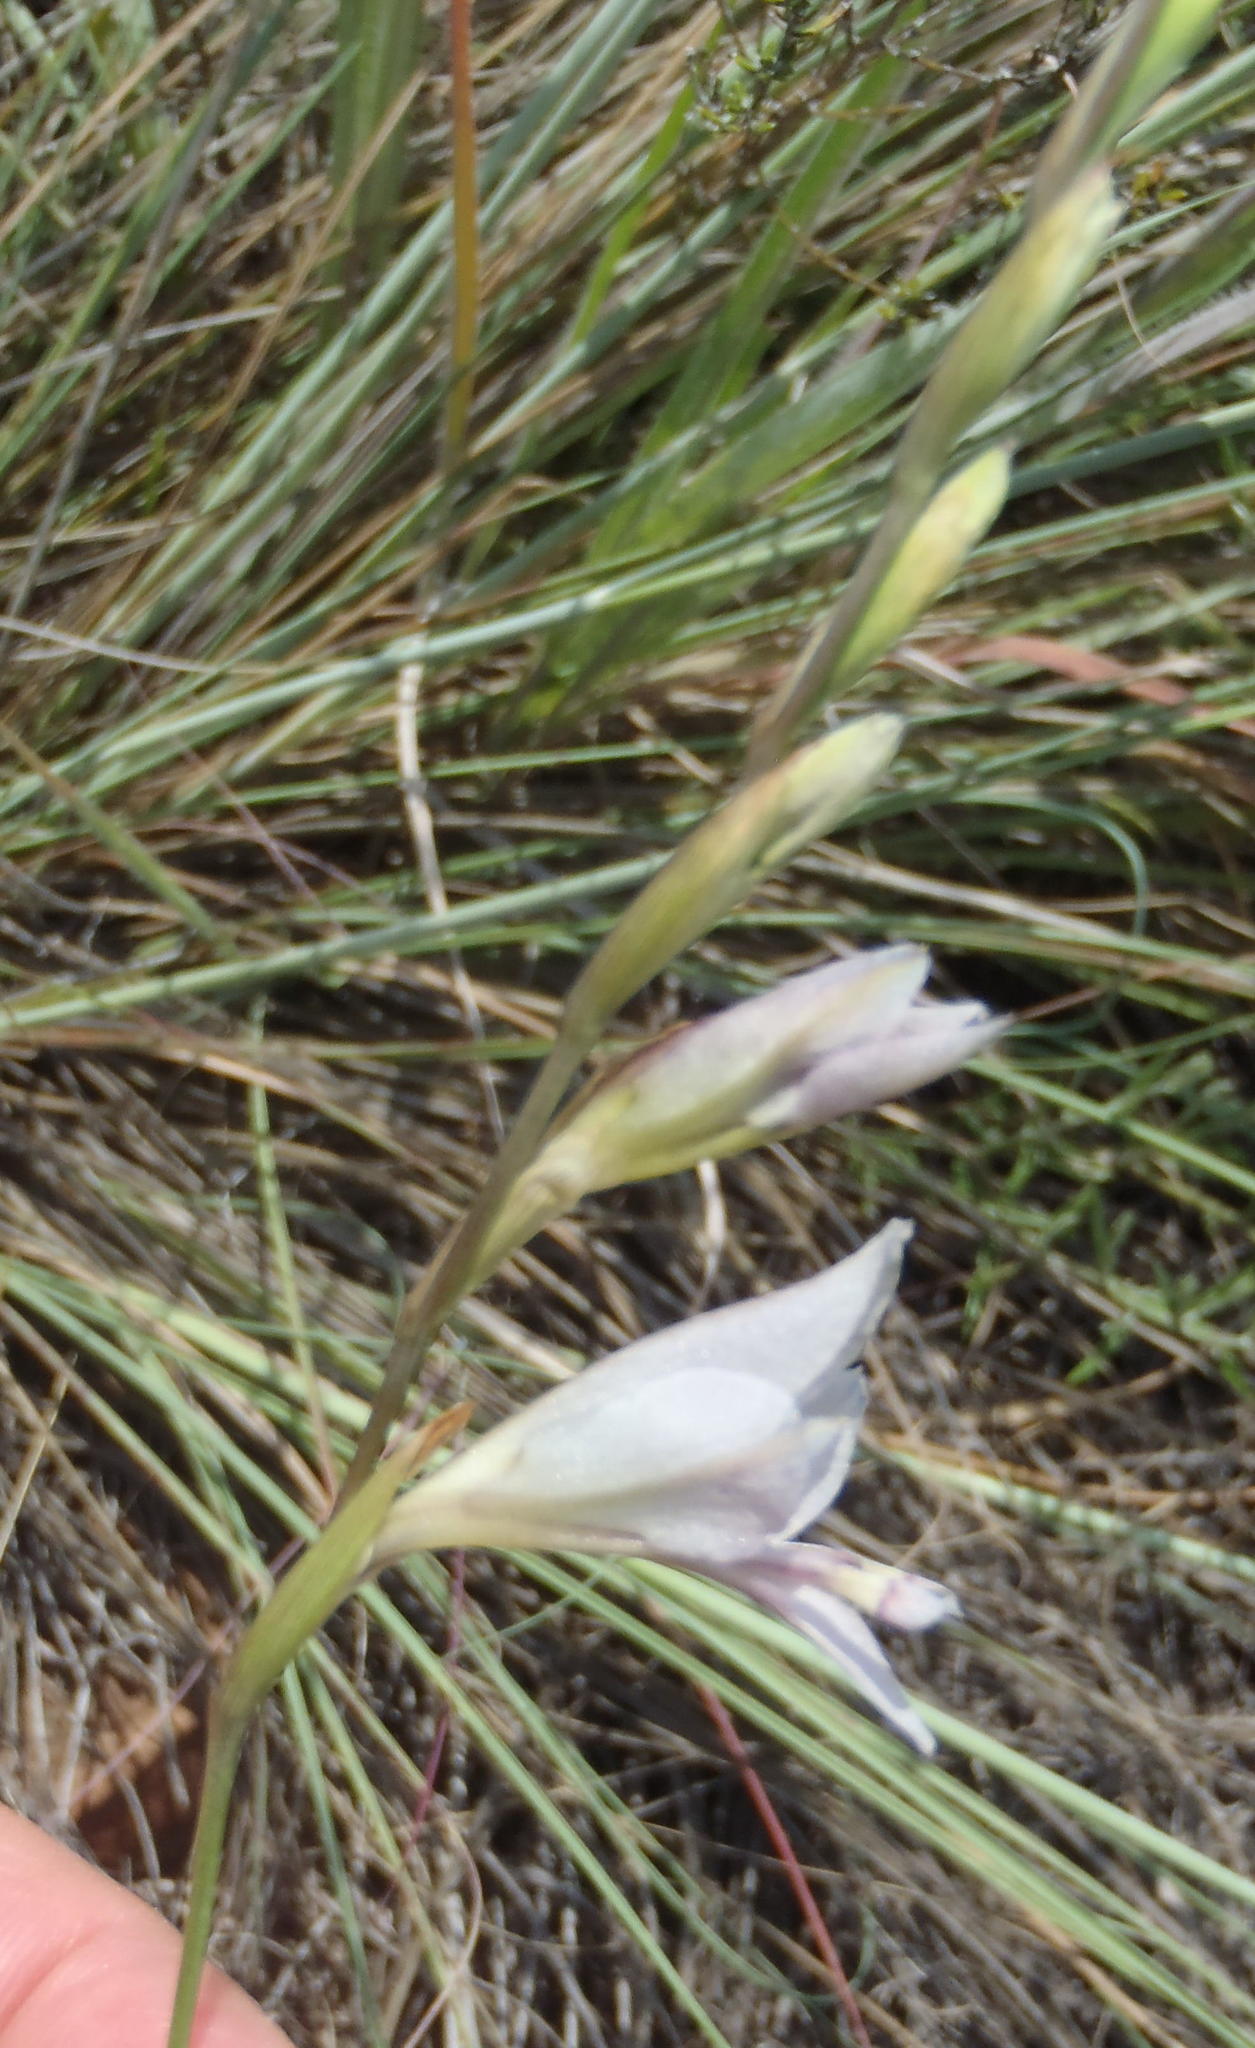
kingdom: Plantae
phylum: Tracheophyta
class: Liliopsida
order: Asparagales
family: Iridaceae
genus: Gladiolus
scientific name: Gladiolus pretoriensis
